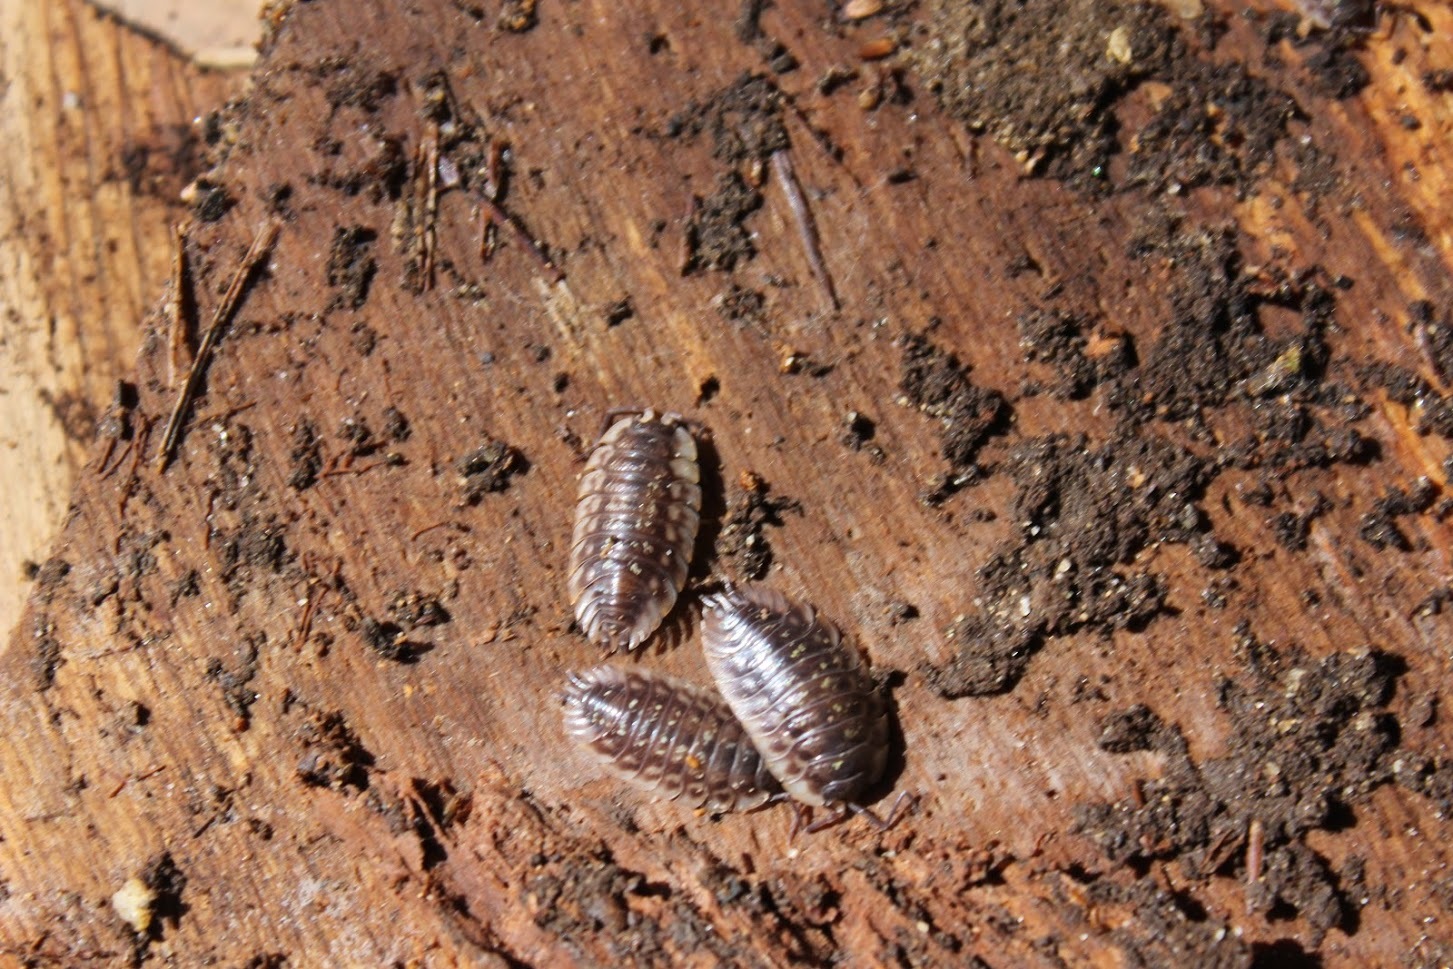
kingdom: Animalia
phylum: Arthropoda
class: Malacostraca
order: Isopoda
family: Oniscidae
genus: Oniscus
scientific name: Oniscus asellus
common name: Common shiny woodlouse
